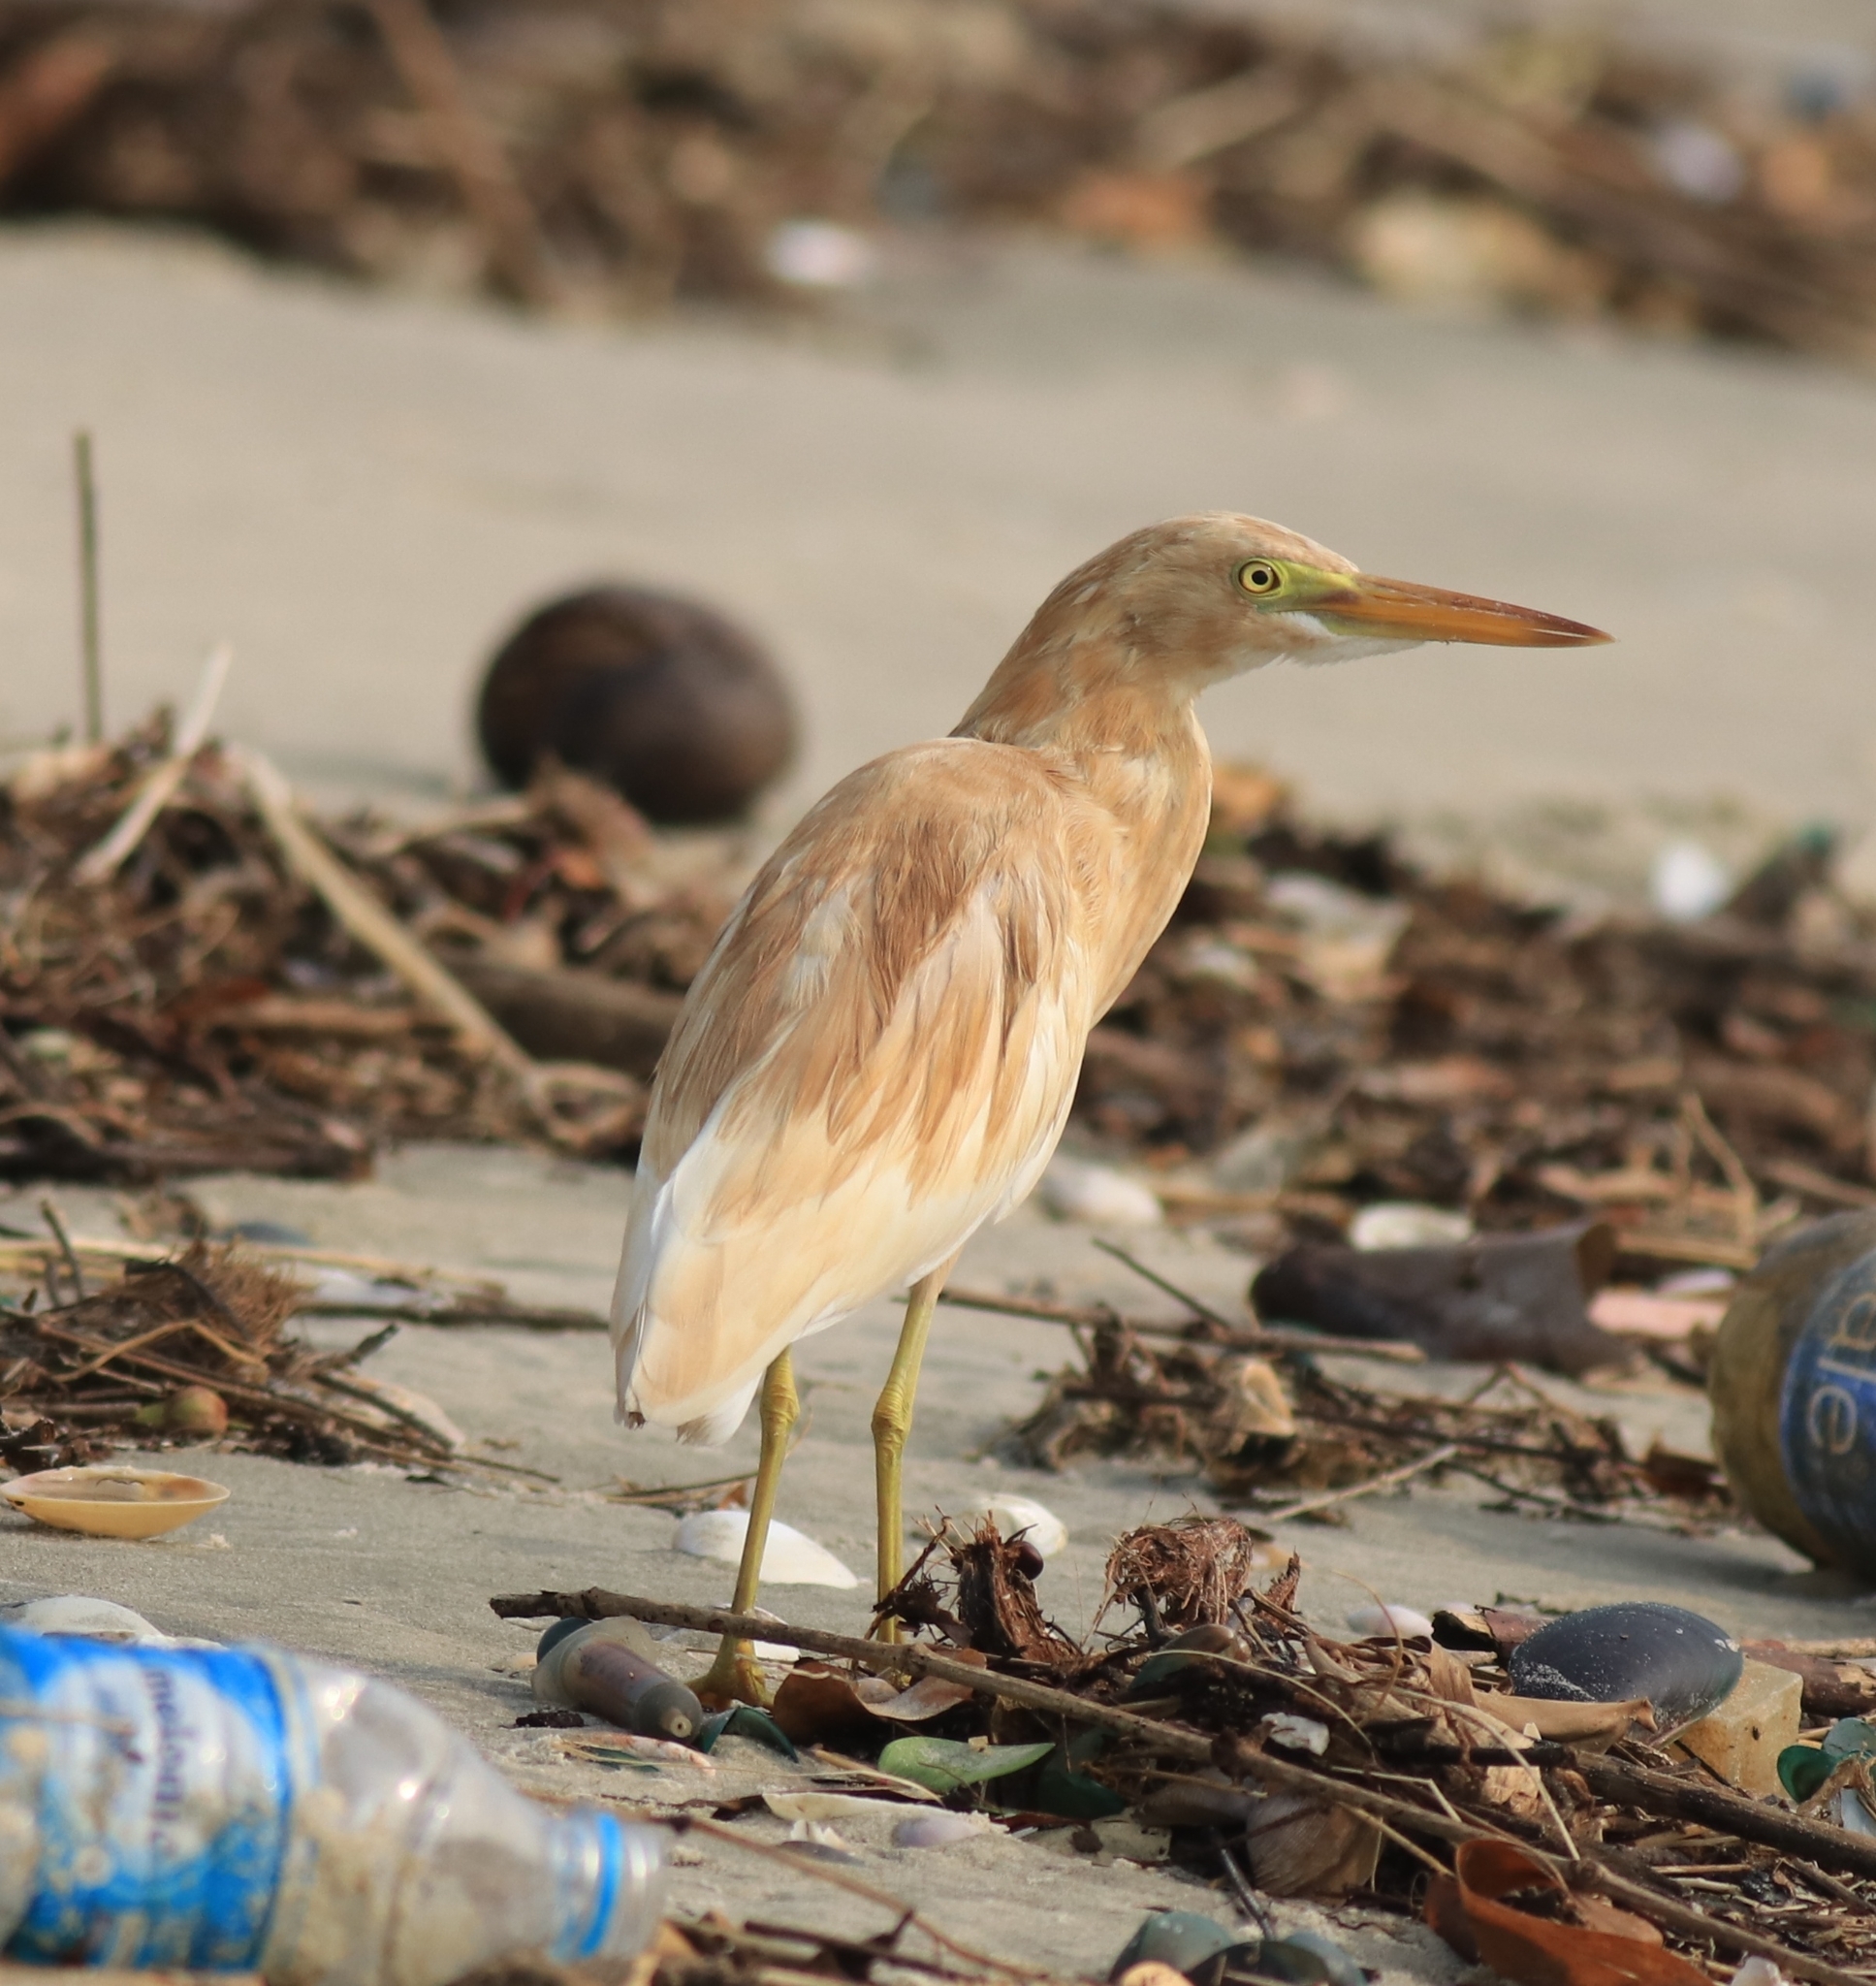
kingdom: Animalia
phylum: Chordata
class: Aves
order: Pelecaniformes
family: Ardeidae
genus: Ardeola
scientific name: Ardeola grayii
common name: Indian pond heron
